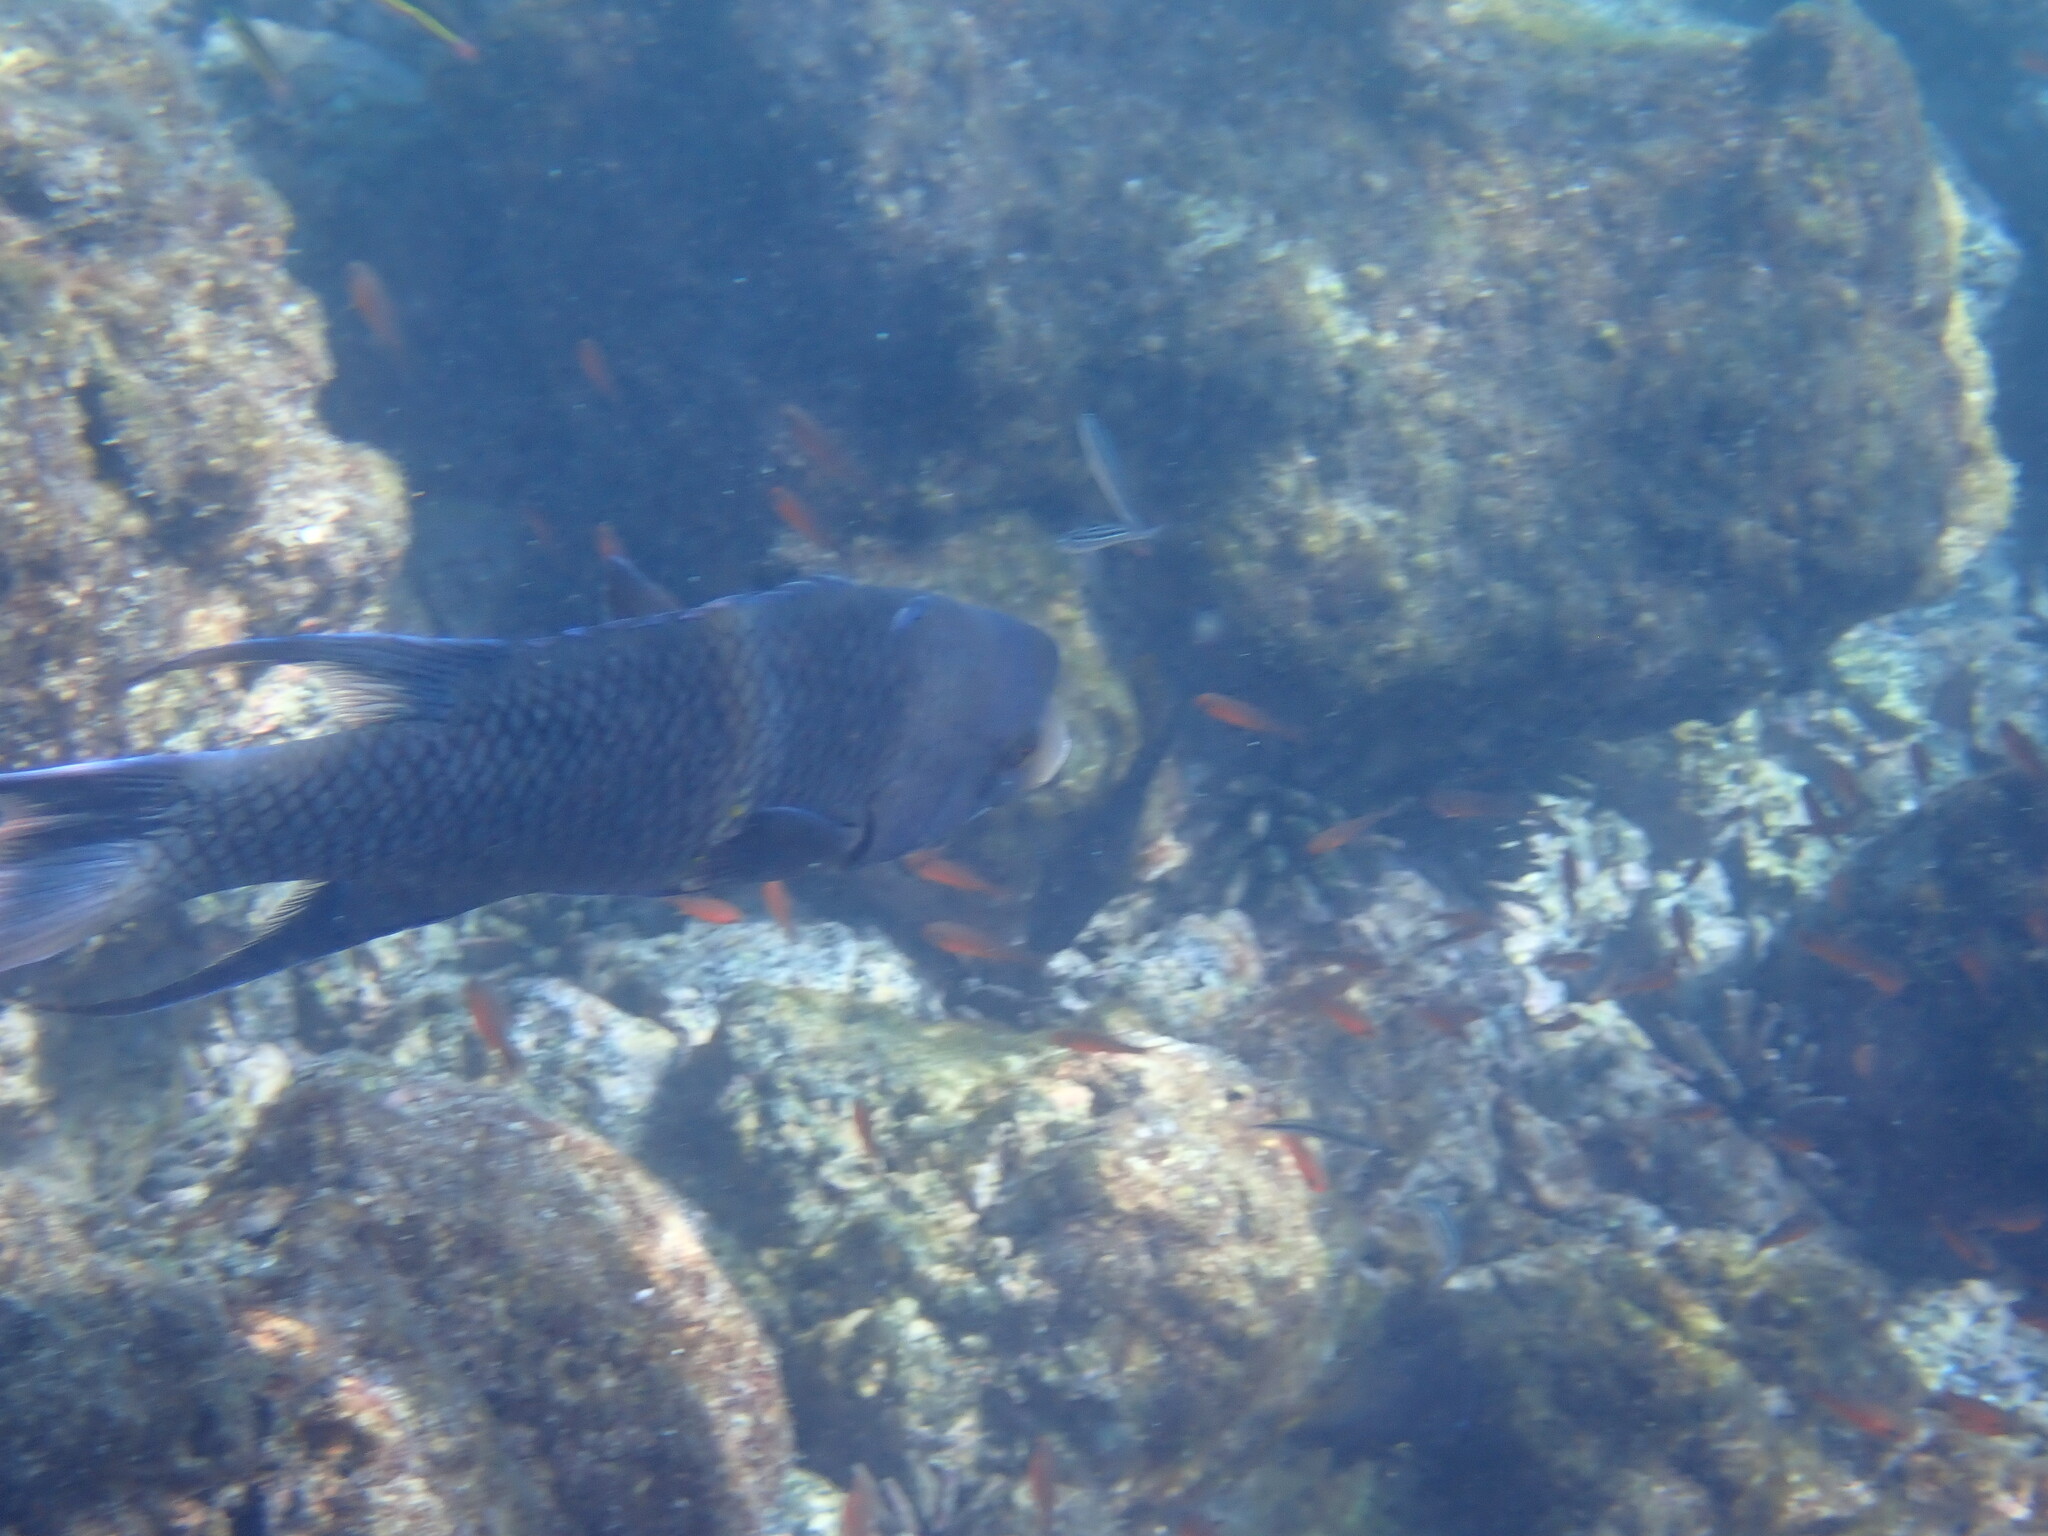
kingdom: Animalia
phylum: Chordata
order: Perciformes
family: Labridae
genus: Bodianus
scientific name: Bodianus diplotaenia
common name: Mexican hogfish
